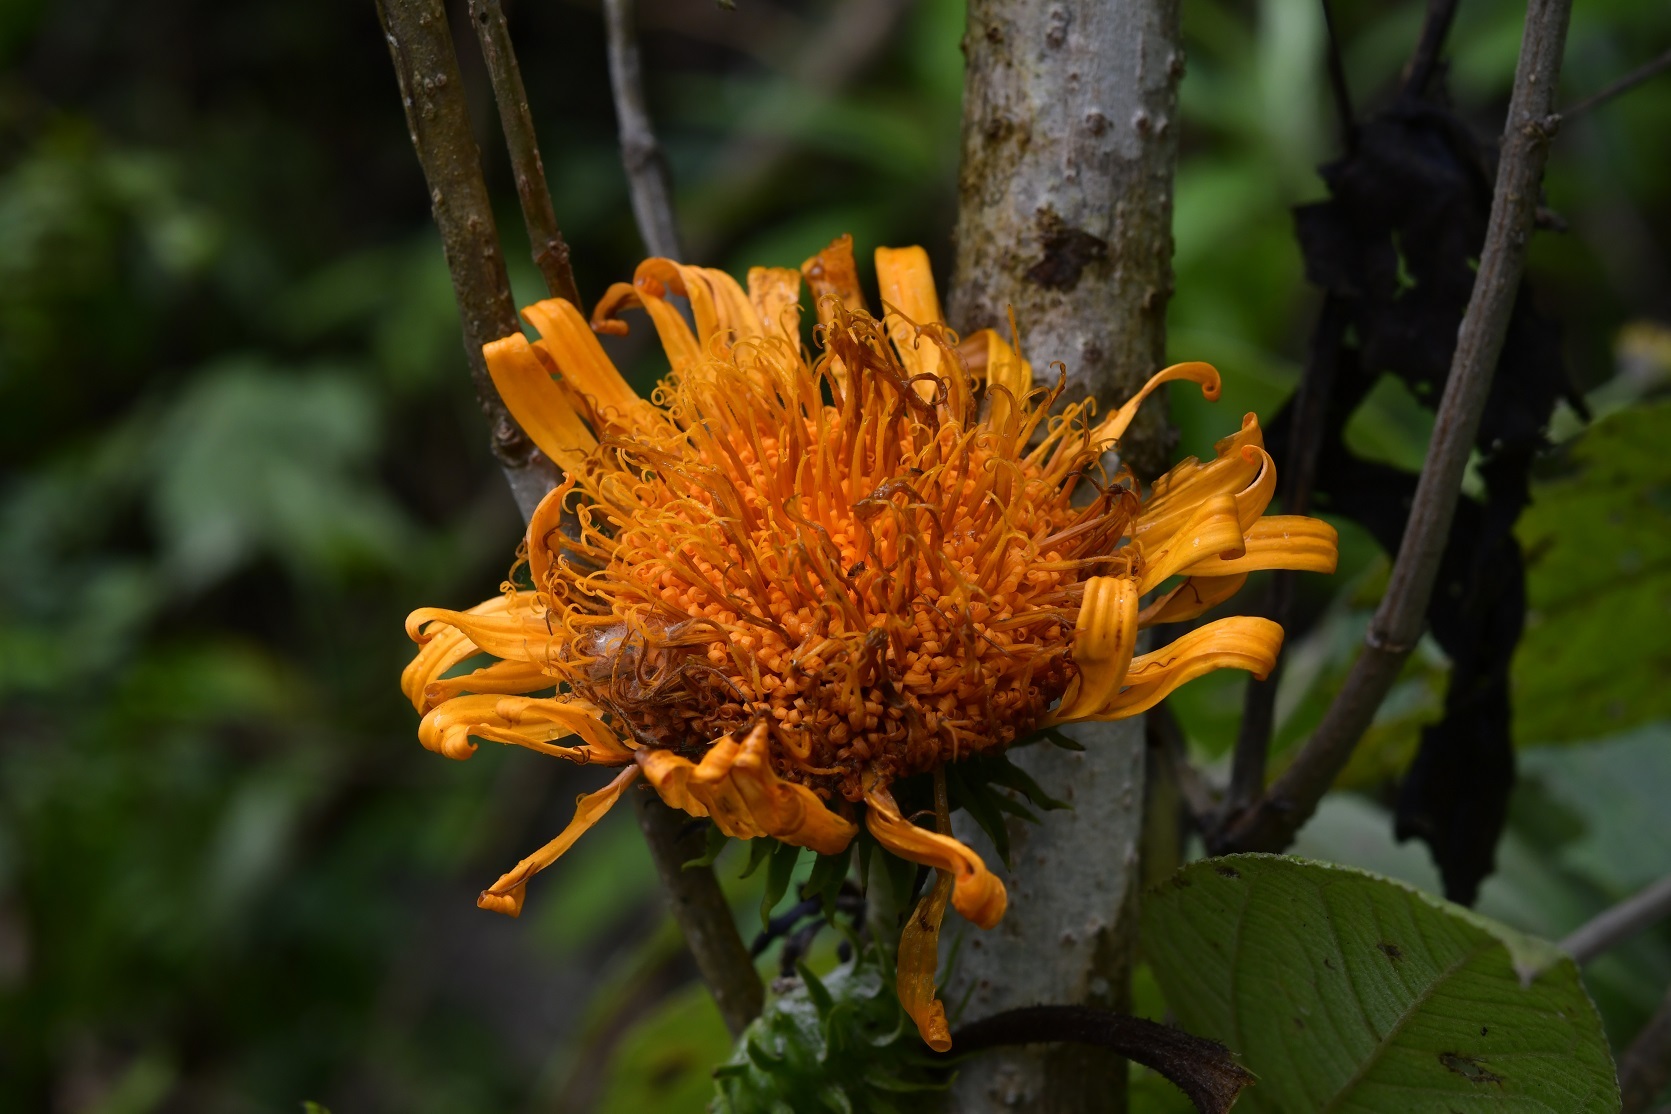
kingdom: Plantae
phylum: Tracheophyta
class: Magnoliopsida
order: Asterales
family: Asteraceae
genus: Sinclairia
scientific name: Sinclairia andrieuxii
